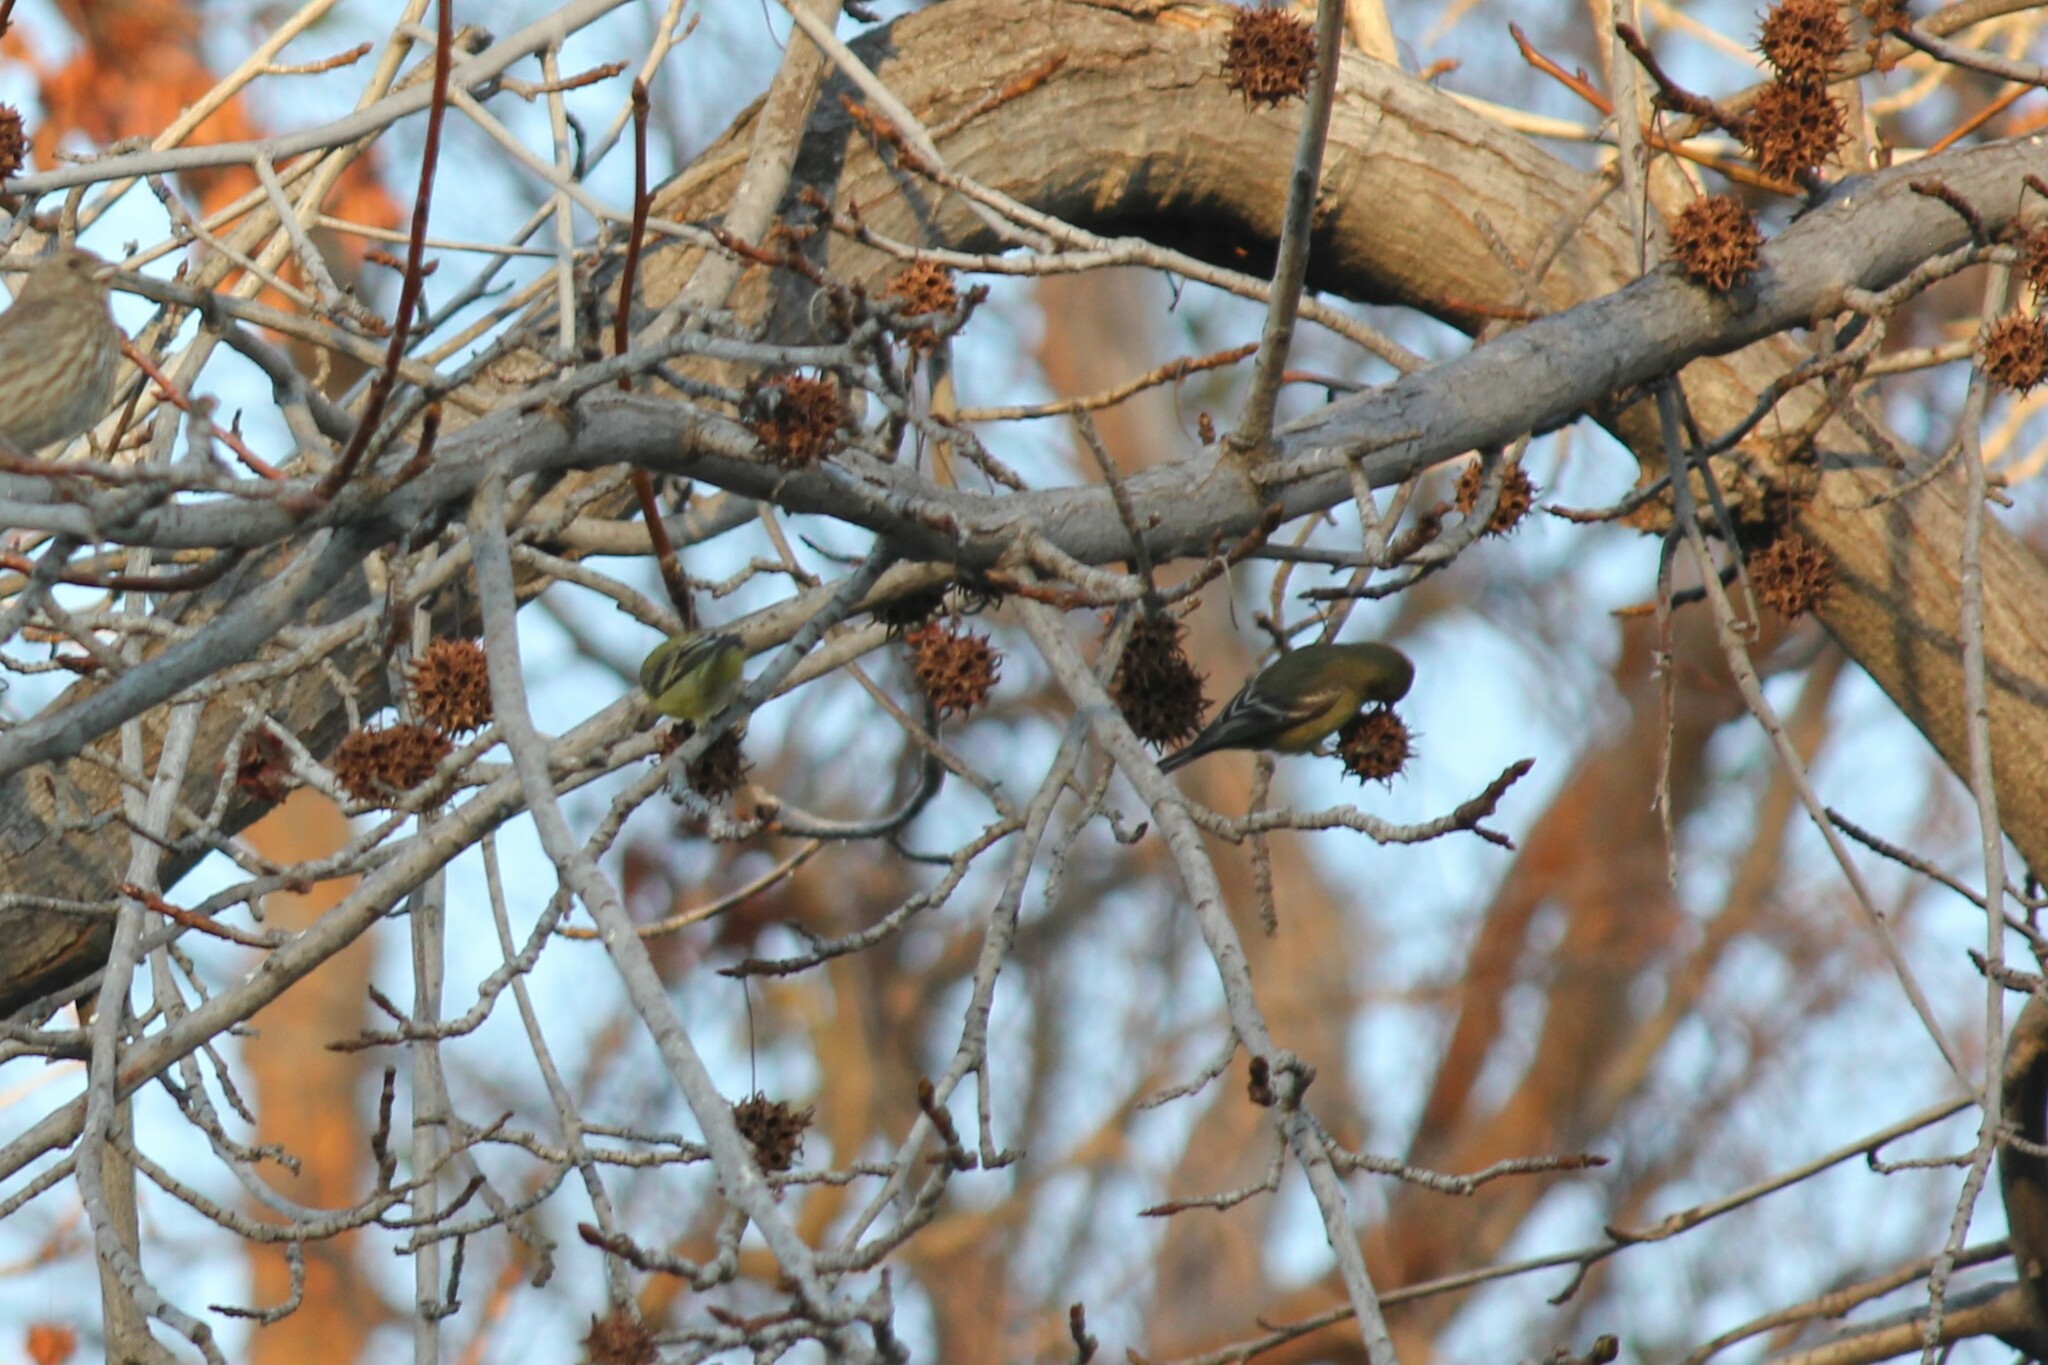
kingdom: Animalia
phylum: Chordata
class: Aves
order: Passeriformes
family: Fringillidae
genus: Spinus
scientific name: Spinus psaltria
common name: Lesser goldfinch
